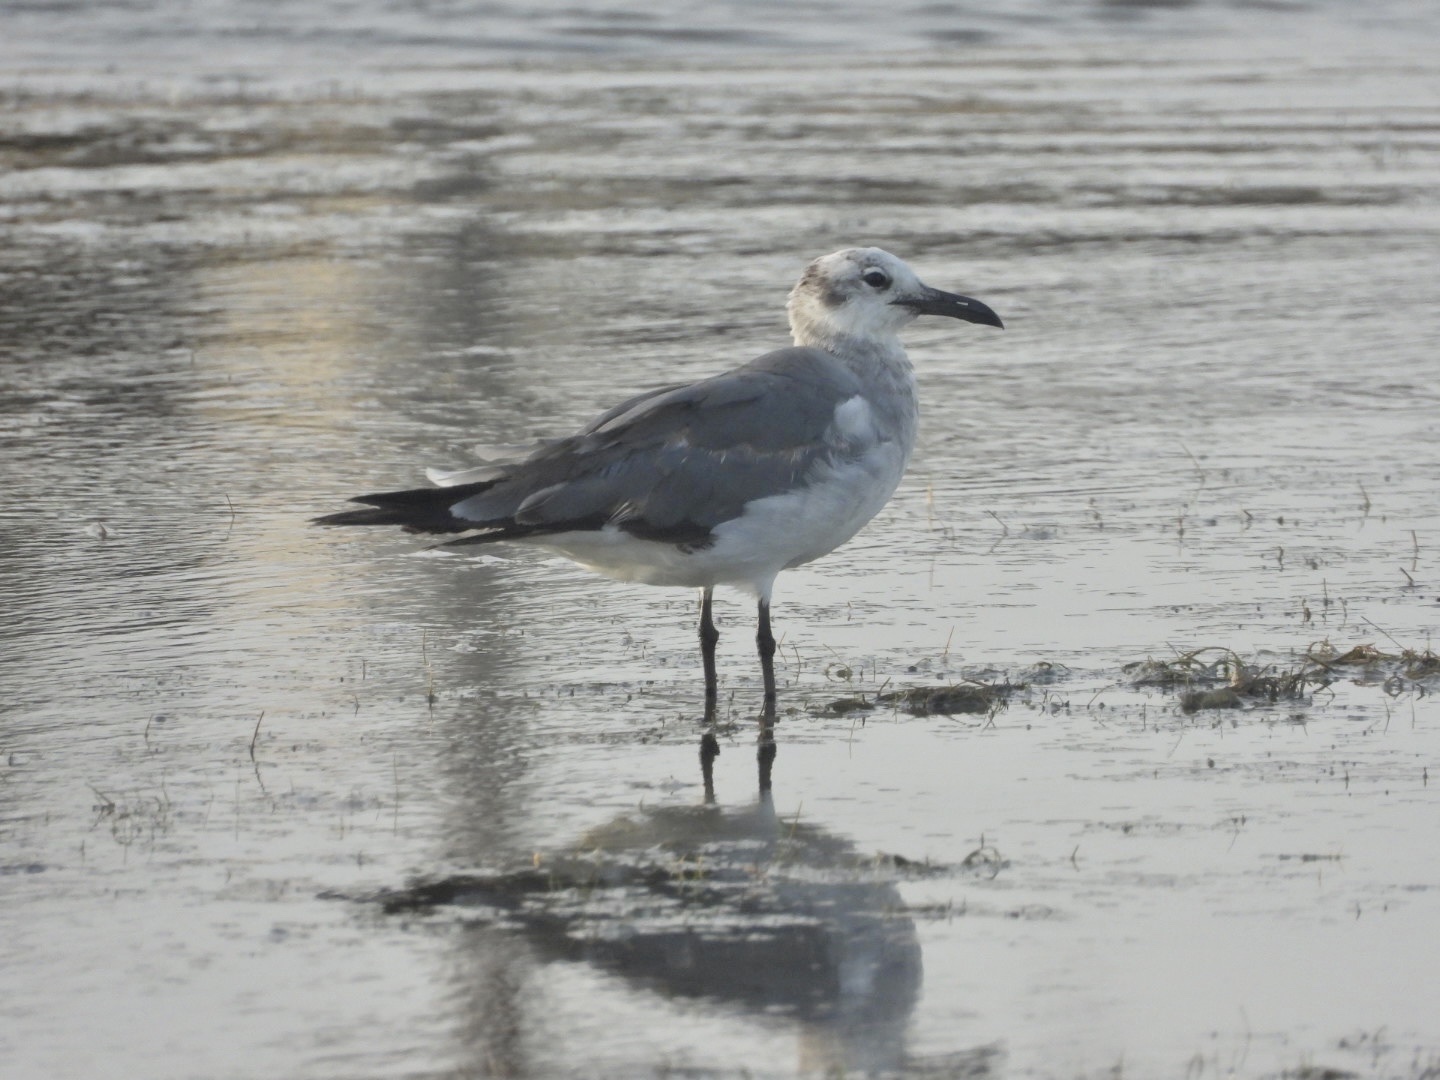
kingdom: Animalia
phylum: Chordata
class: Aves
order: Charadriiformes
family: Laridae
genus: Leucophaeus
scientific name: Leucophaeus atricilla
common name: Laughing gull
